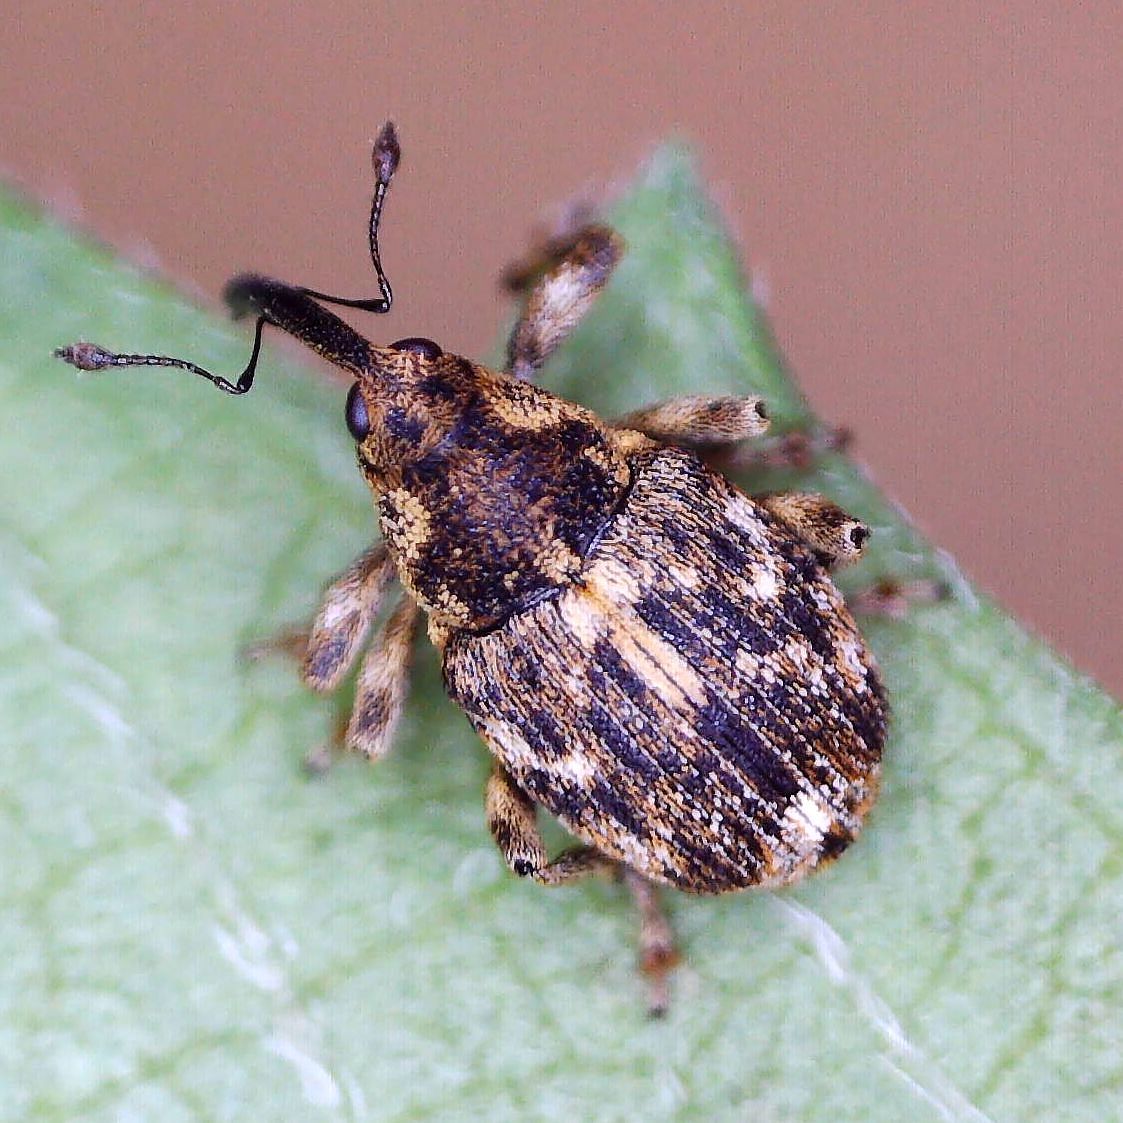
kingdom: Animalia
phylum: Arthropoda
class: Insecta
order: Coleoptera
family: Curculionidae
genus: Datonychus
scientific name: Datonychus melanostictus
